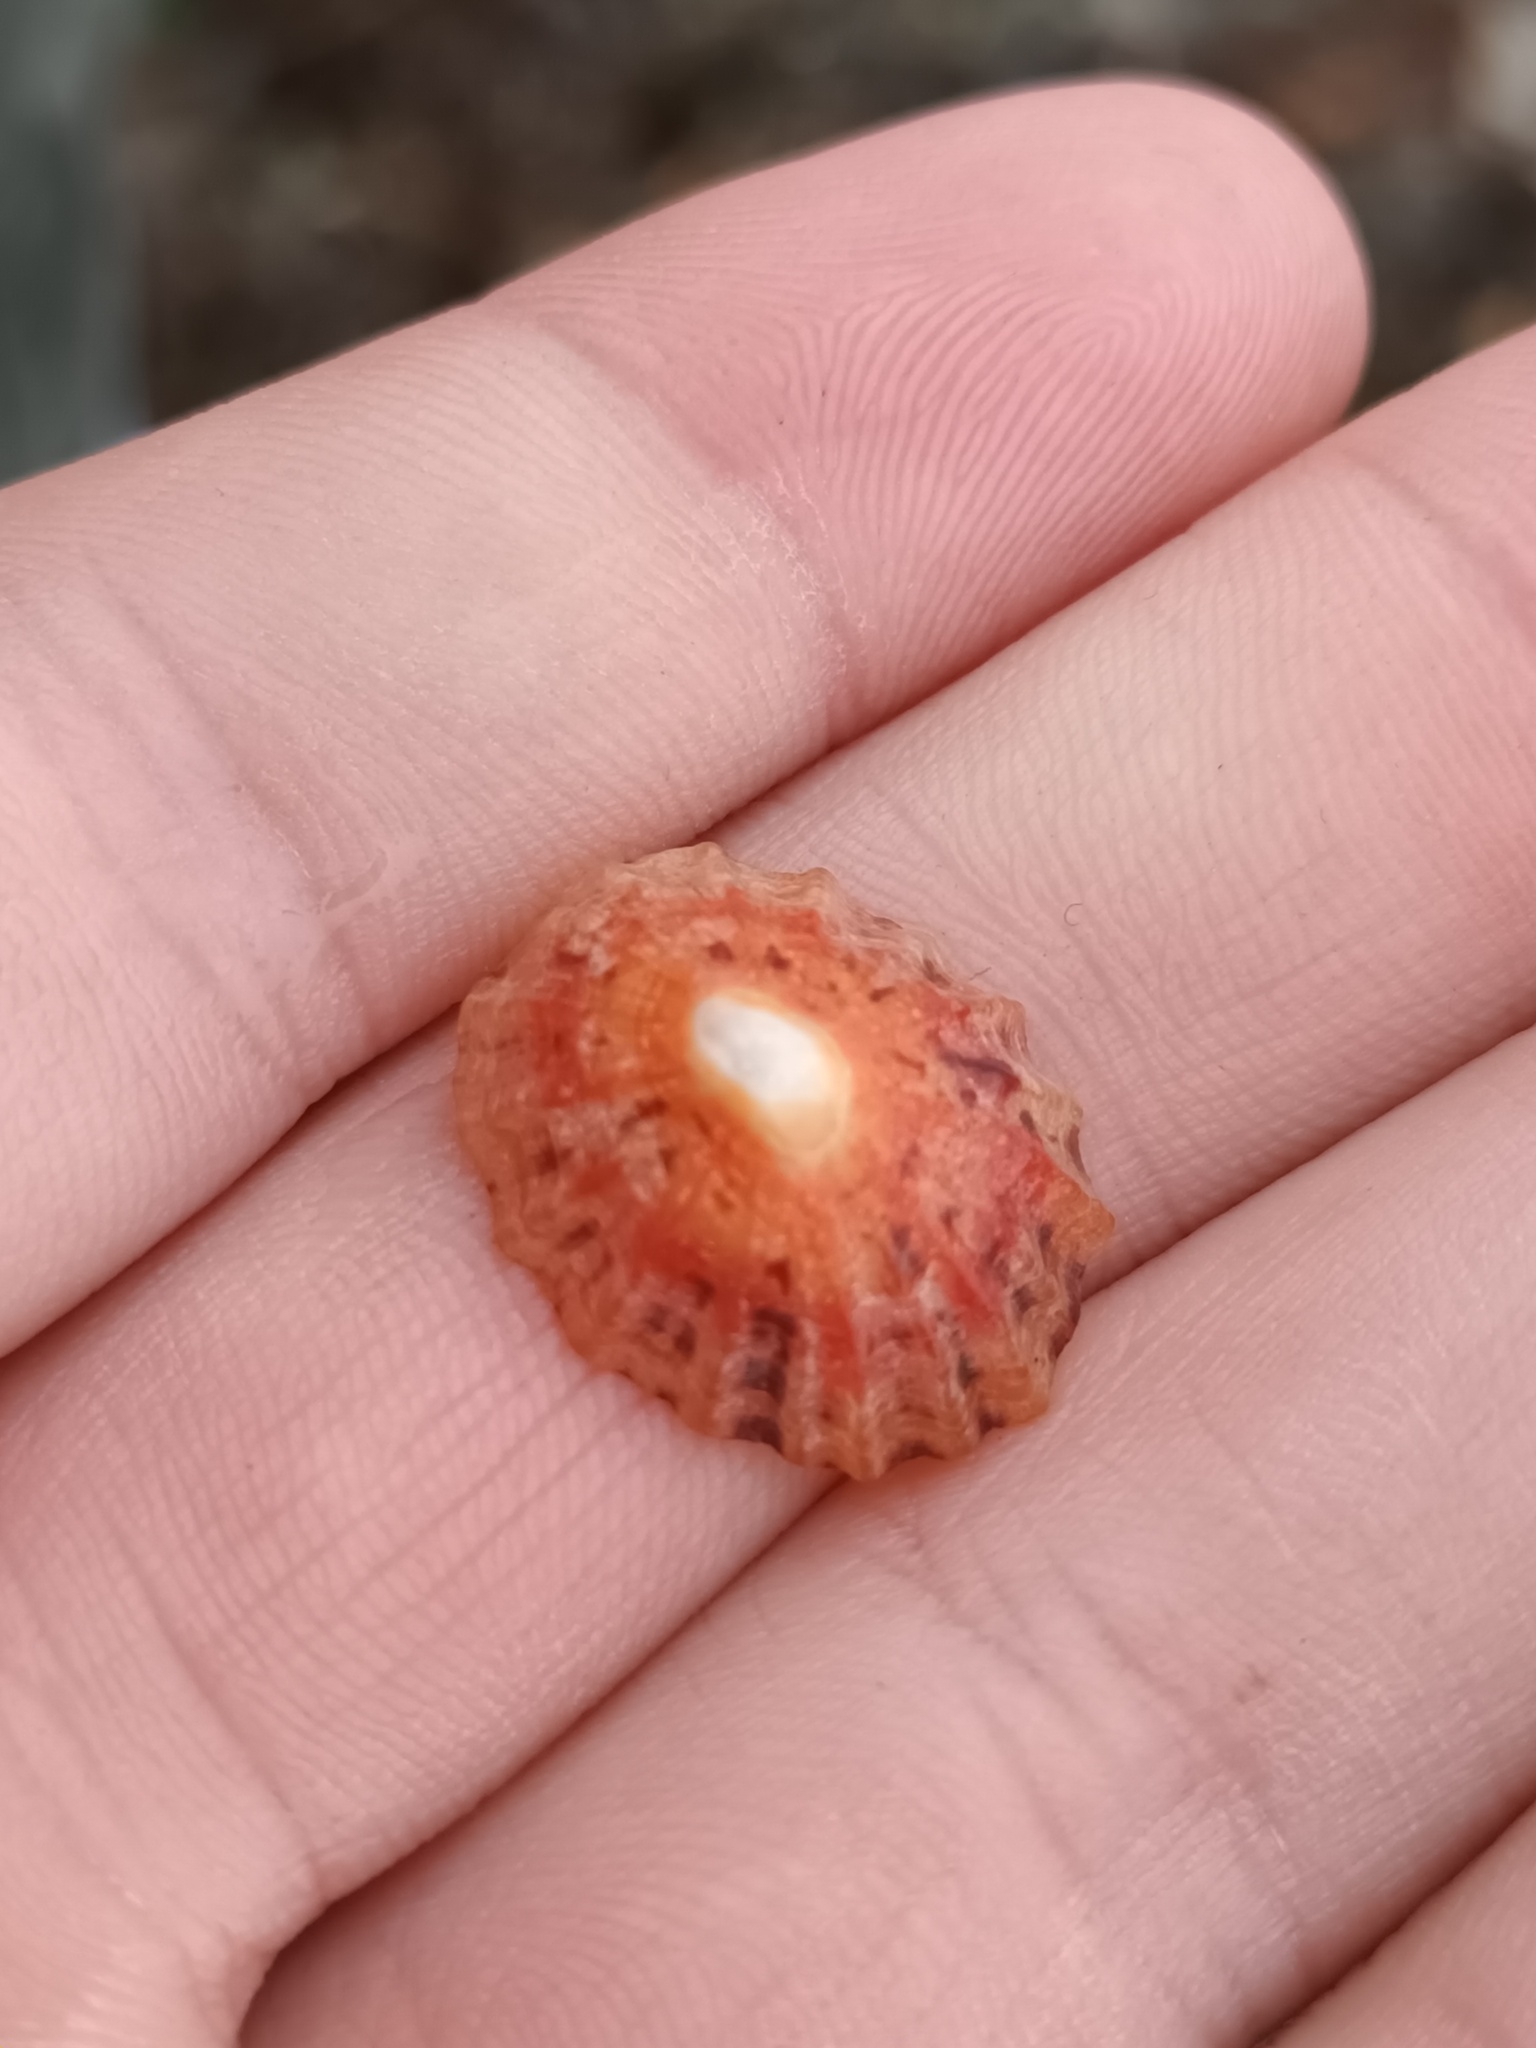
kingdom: Animalia
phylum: Mollusca
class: Gastropoda
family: Patellidae
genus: Patella
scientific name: Patella vulgata
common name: Common limpet
